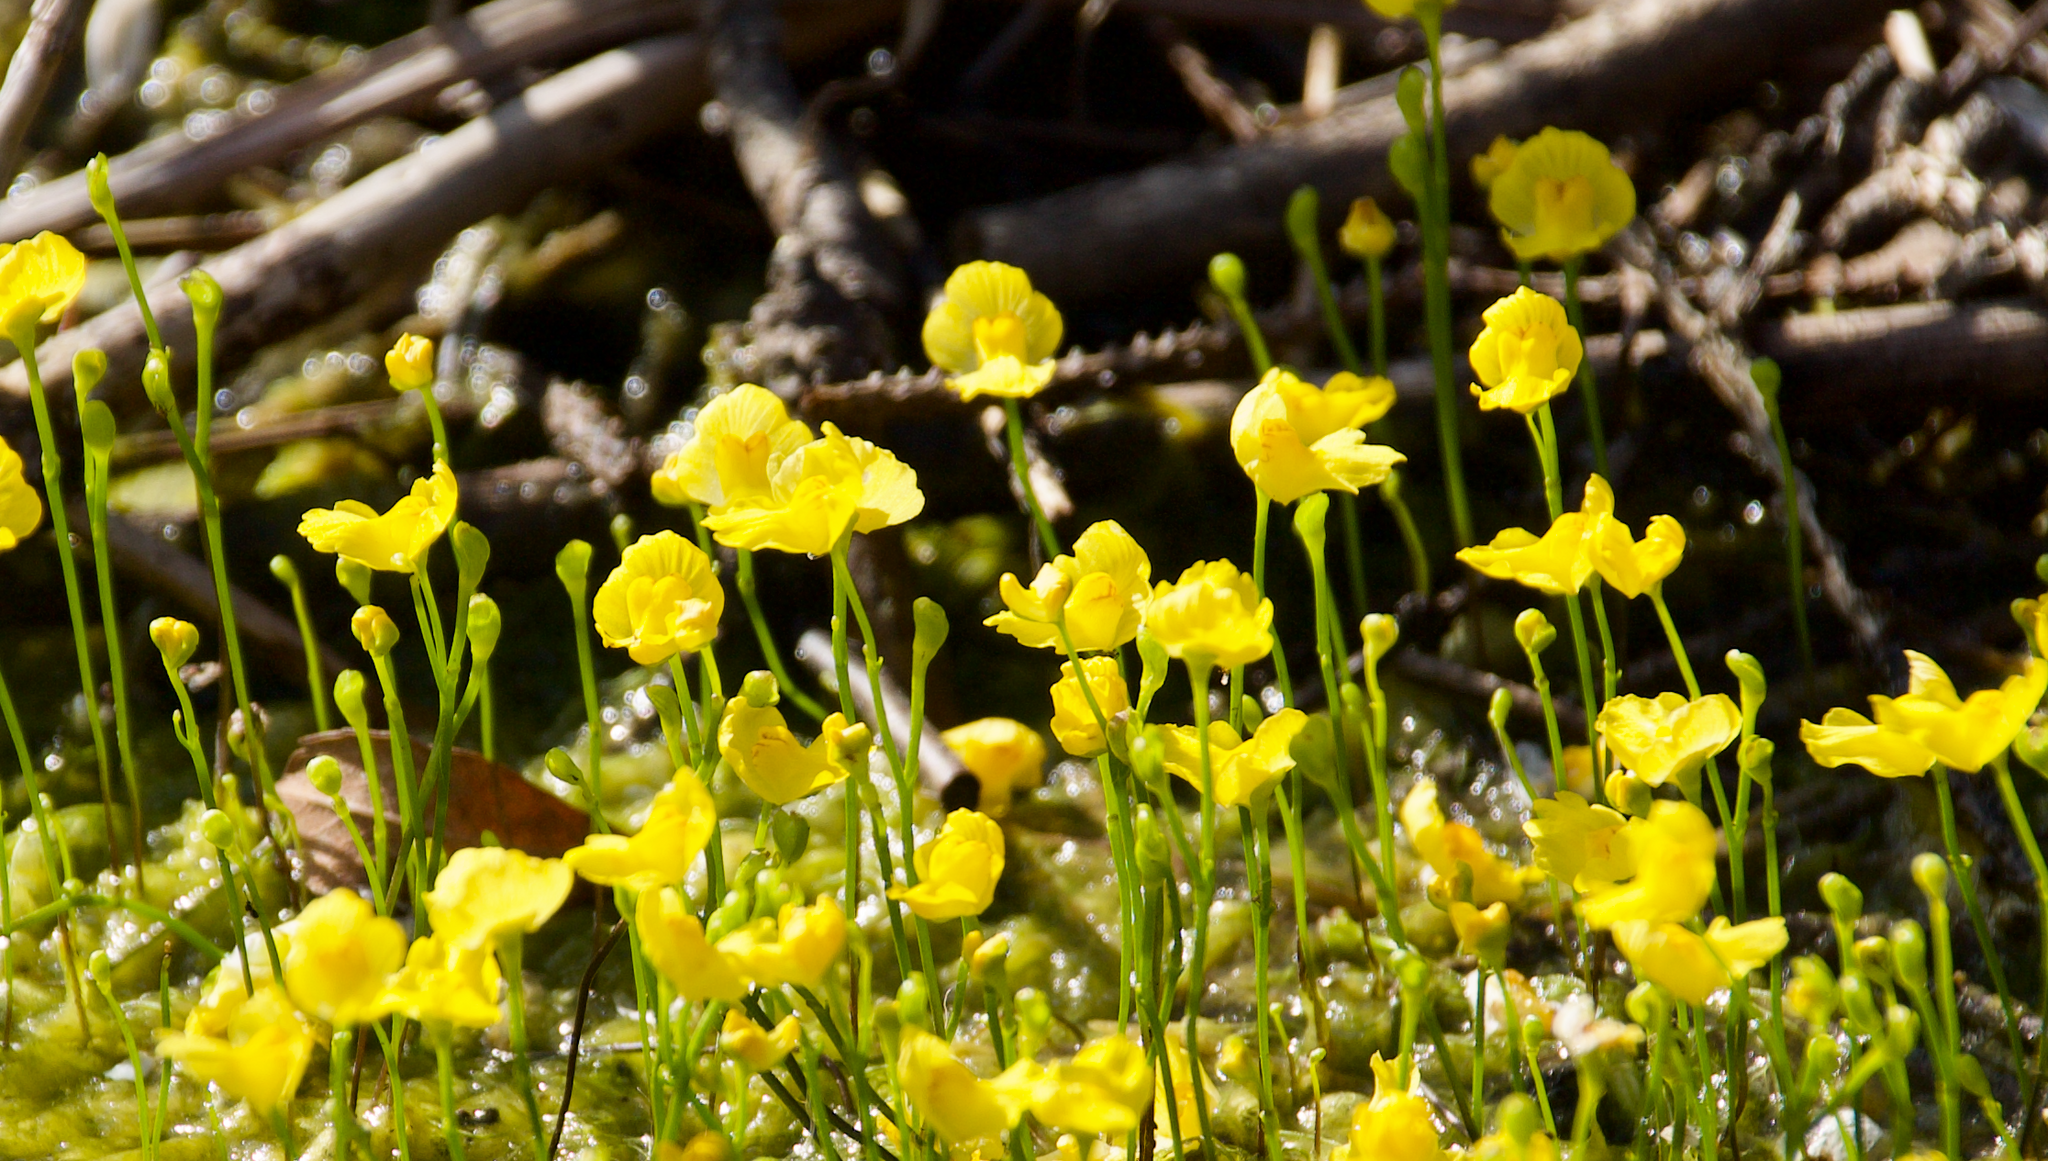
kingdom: Plantae
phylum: Tracheophyta
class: Magnoliopsida
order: Lamiales
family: Lentibulariaceae
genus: Utricularia
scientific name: Utricularia gibba
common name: Humped bladderwort
